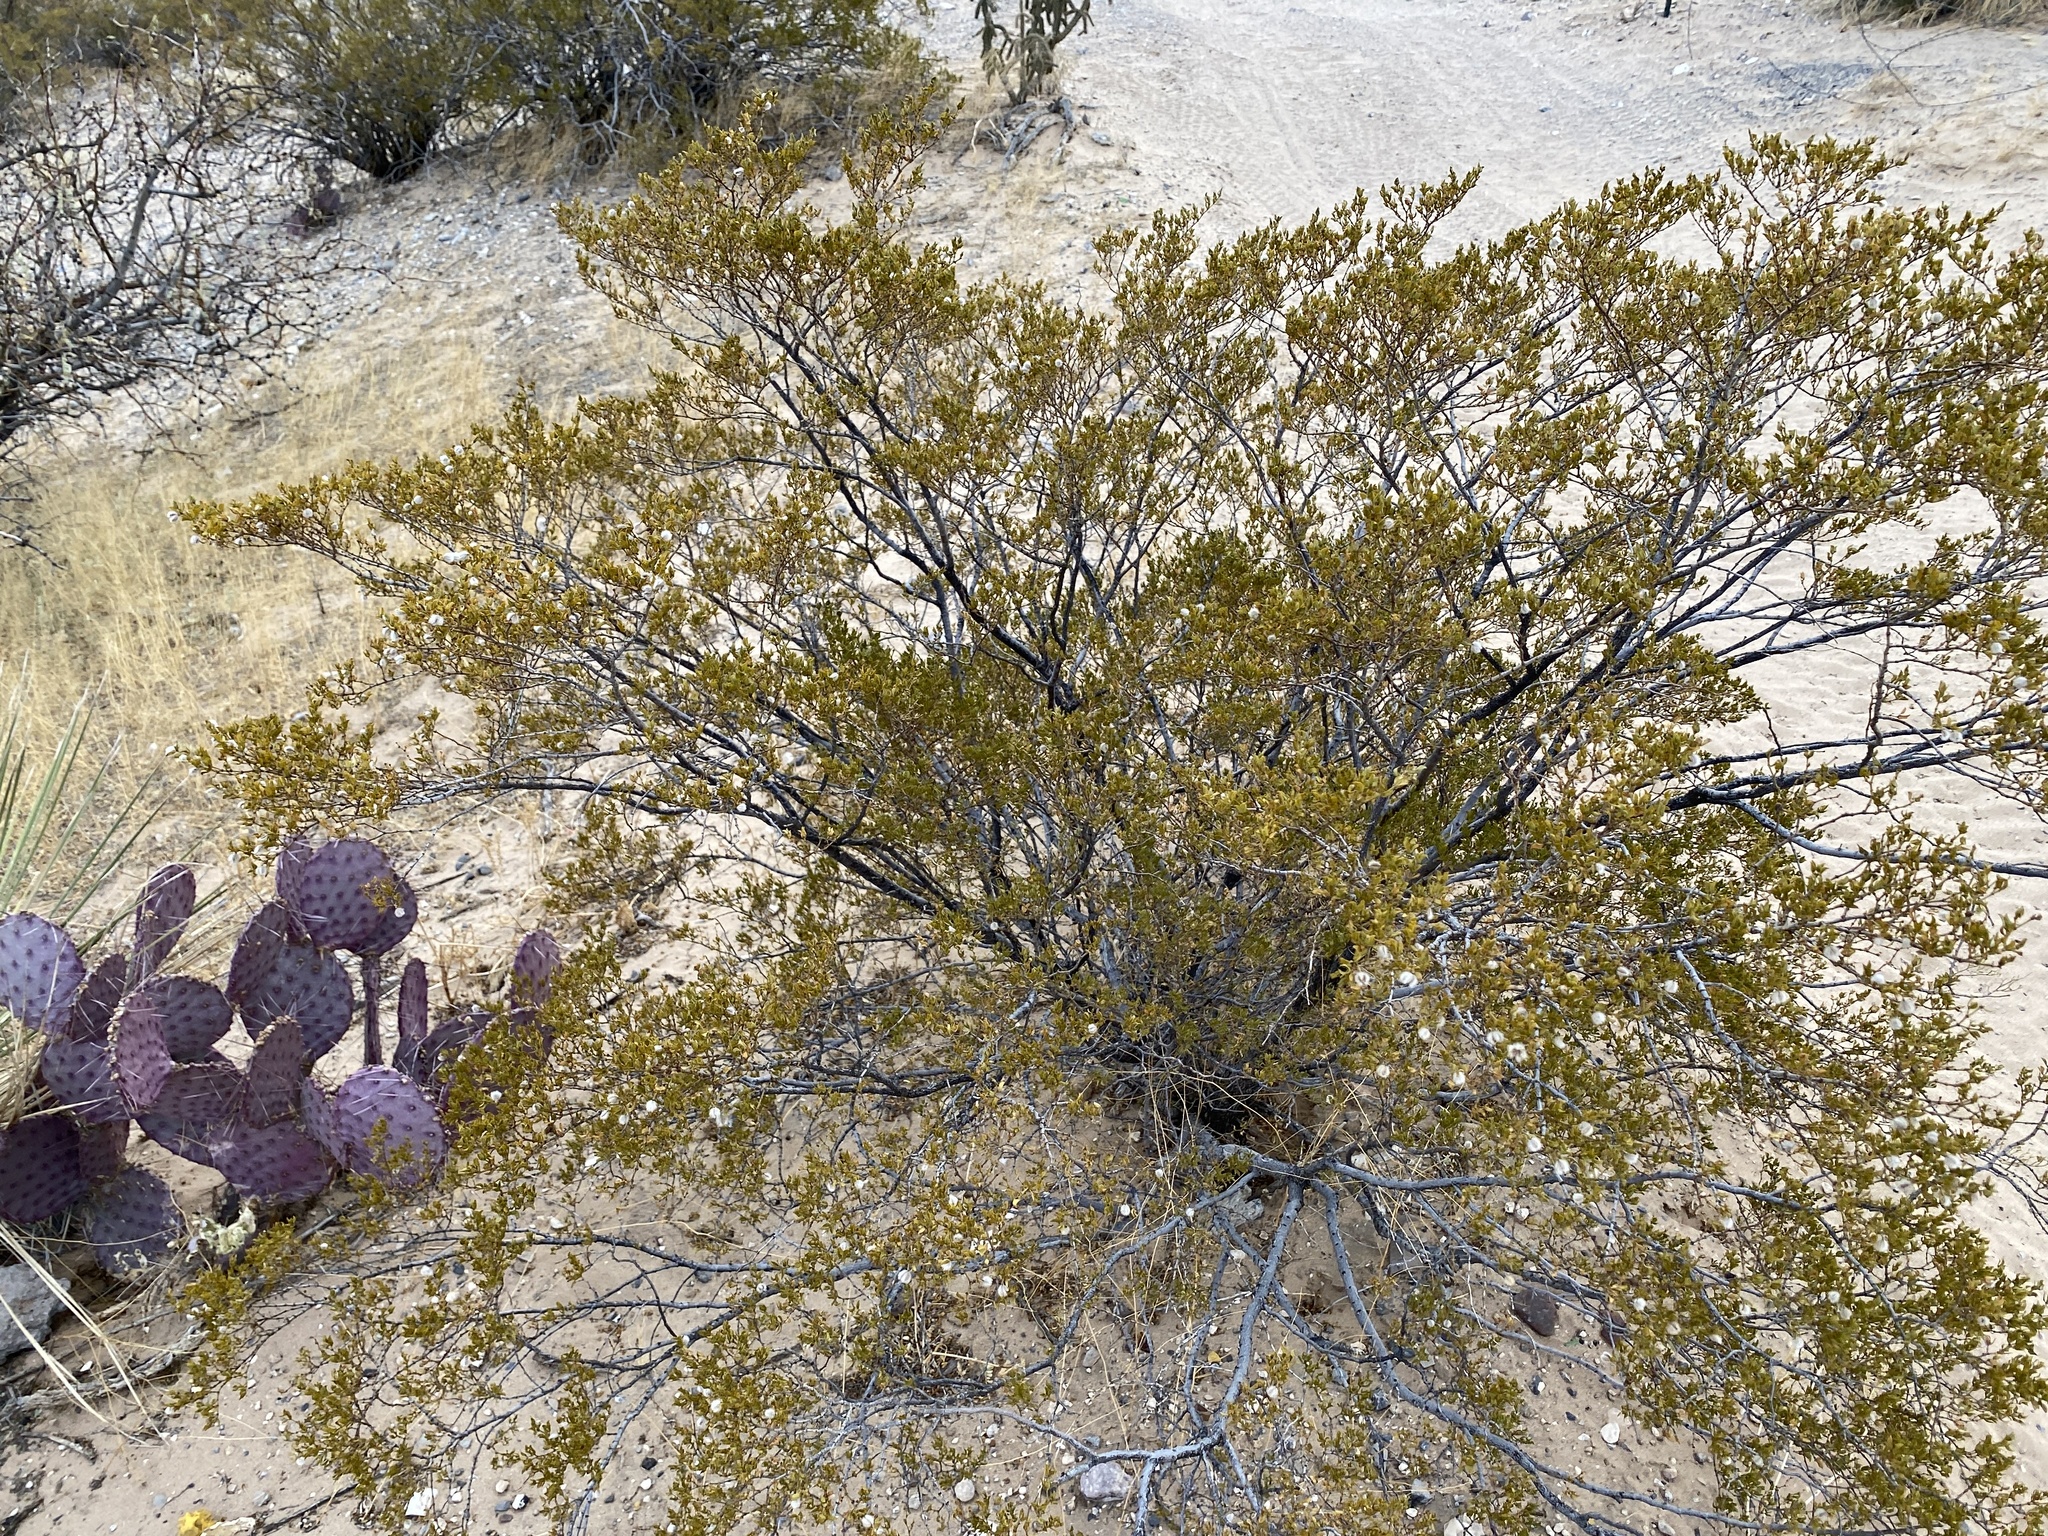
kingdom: Plantae
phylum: Tracheophyta
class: Magnoliopsida
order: Zygophyllales
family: Zygophyllaceae
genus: Larrea
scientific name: Larrea tridentata
